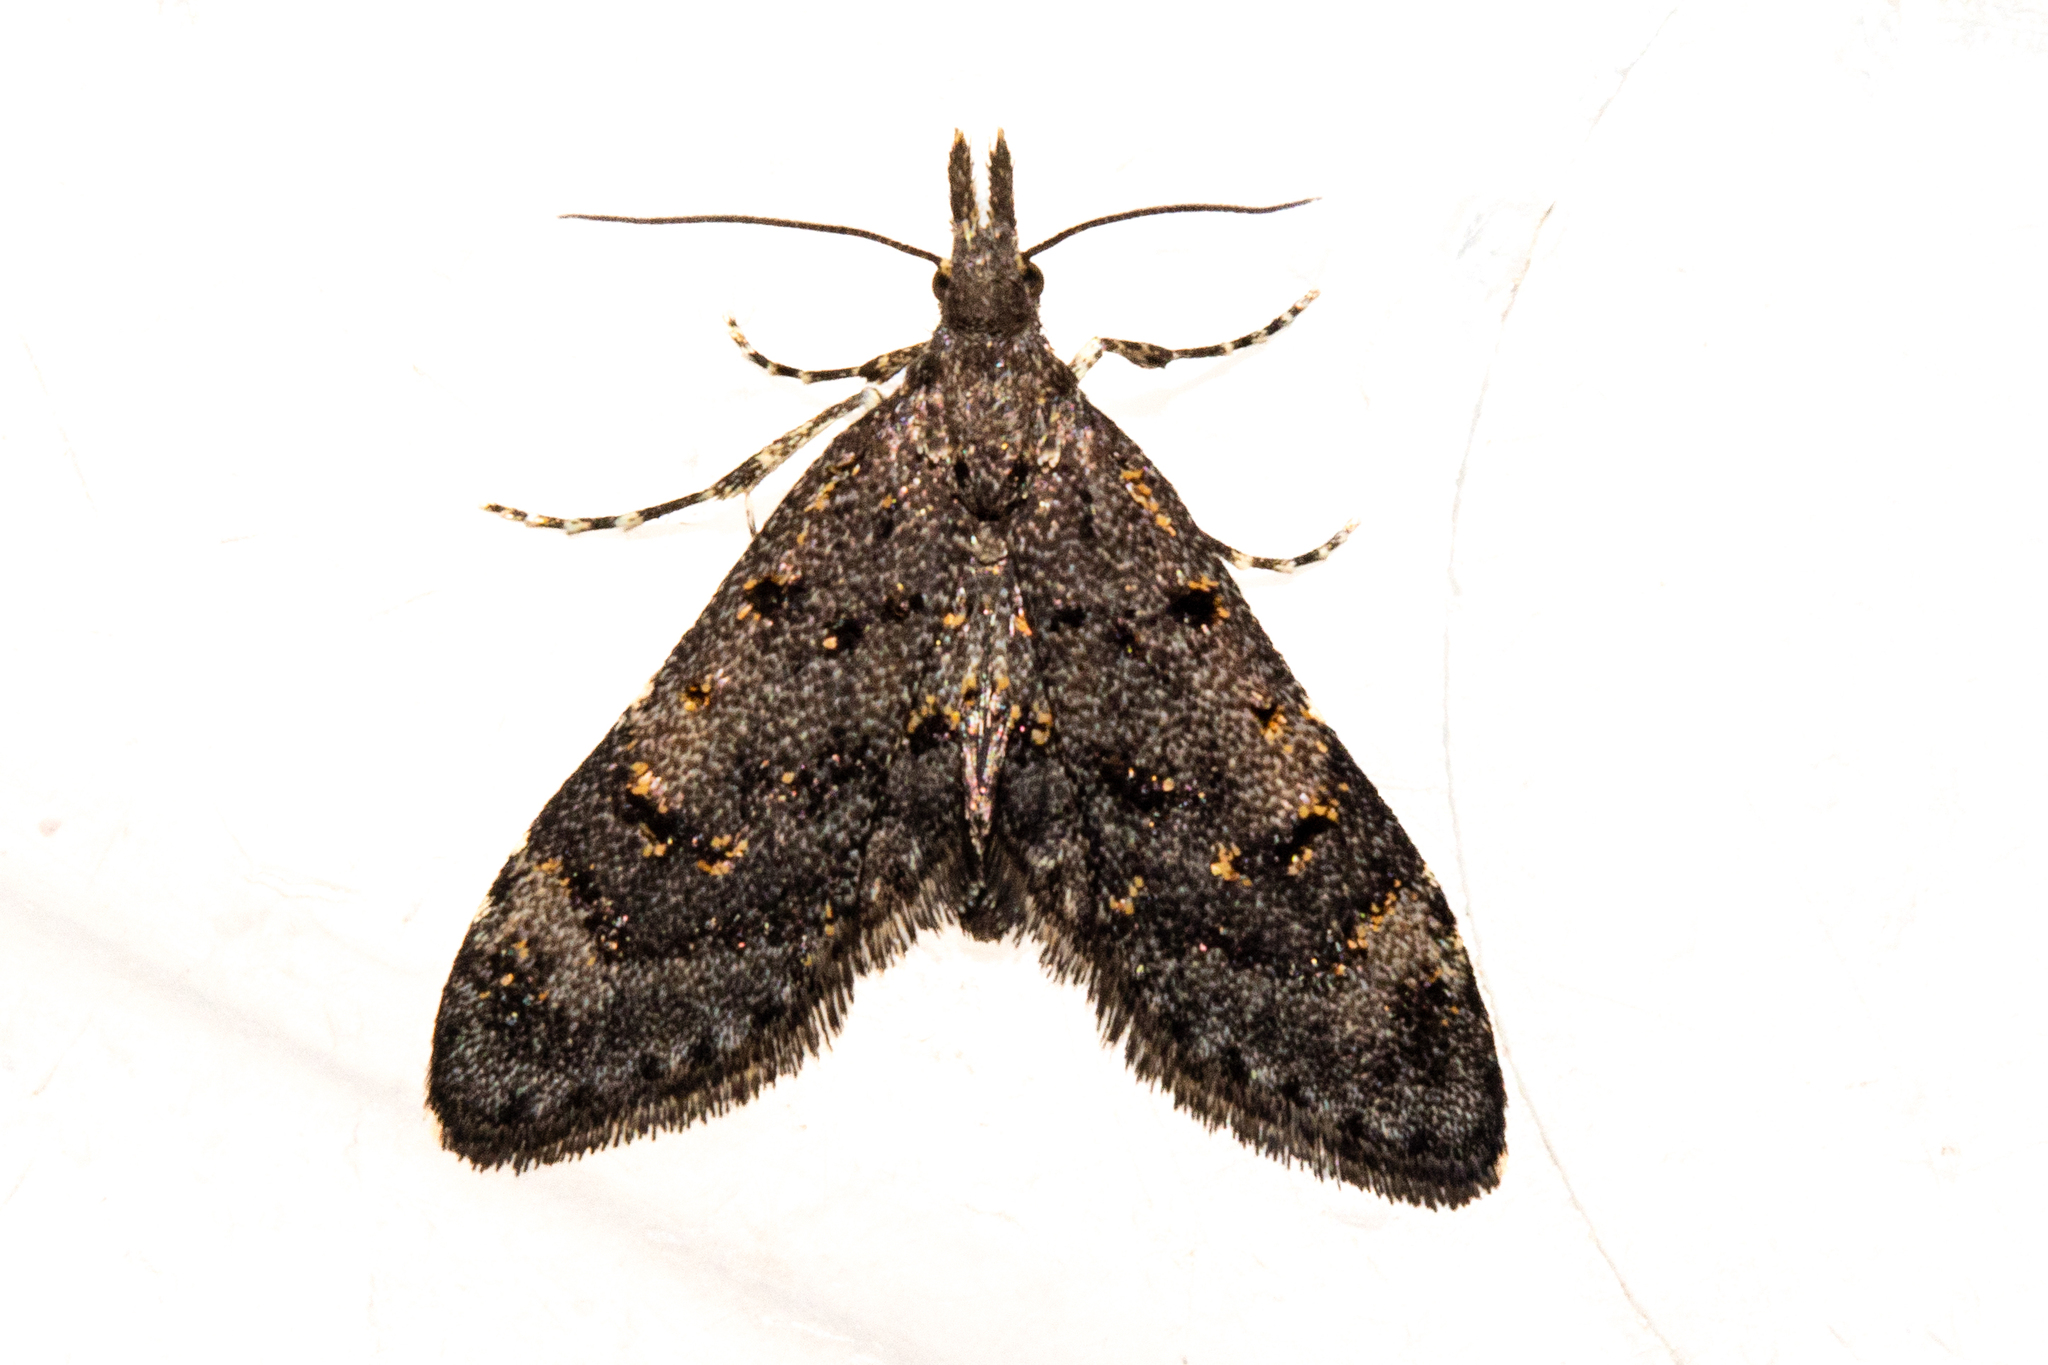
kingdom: Animalia
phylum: Arthropoda
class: Insecta
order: Lepidoptera
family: Copromorphidae
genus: Isonomeutis
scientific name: Isonomeutis amauropa
